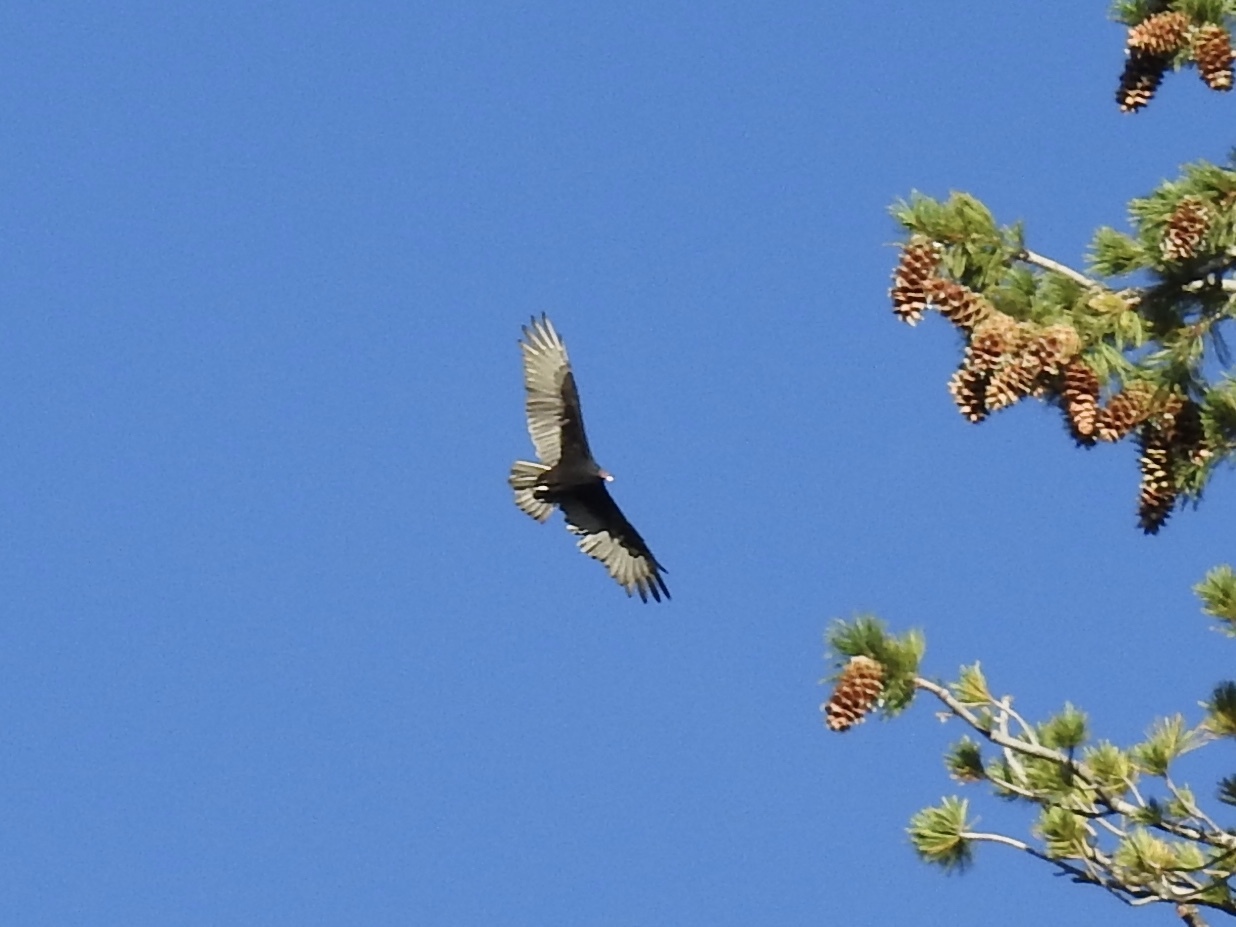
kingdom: Animalia
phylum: Chordata
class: Aves
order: Accipitriformes
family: Cathartidae
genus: Cathartes
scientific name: Cathartes aura
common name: Turkey vulture
